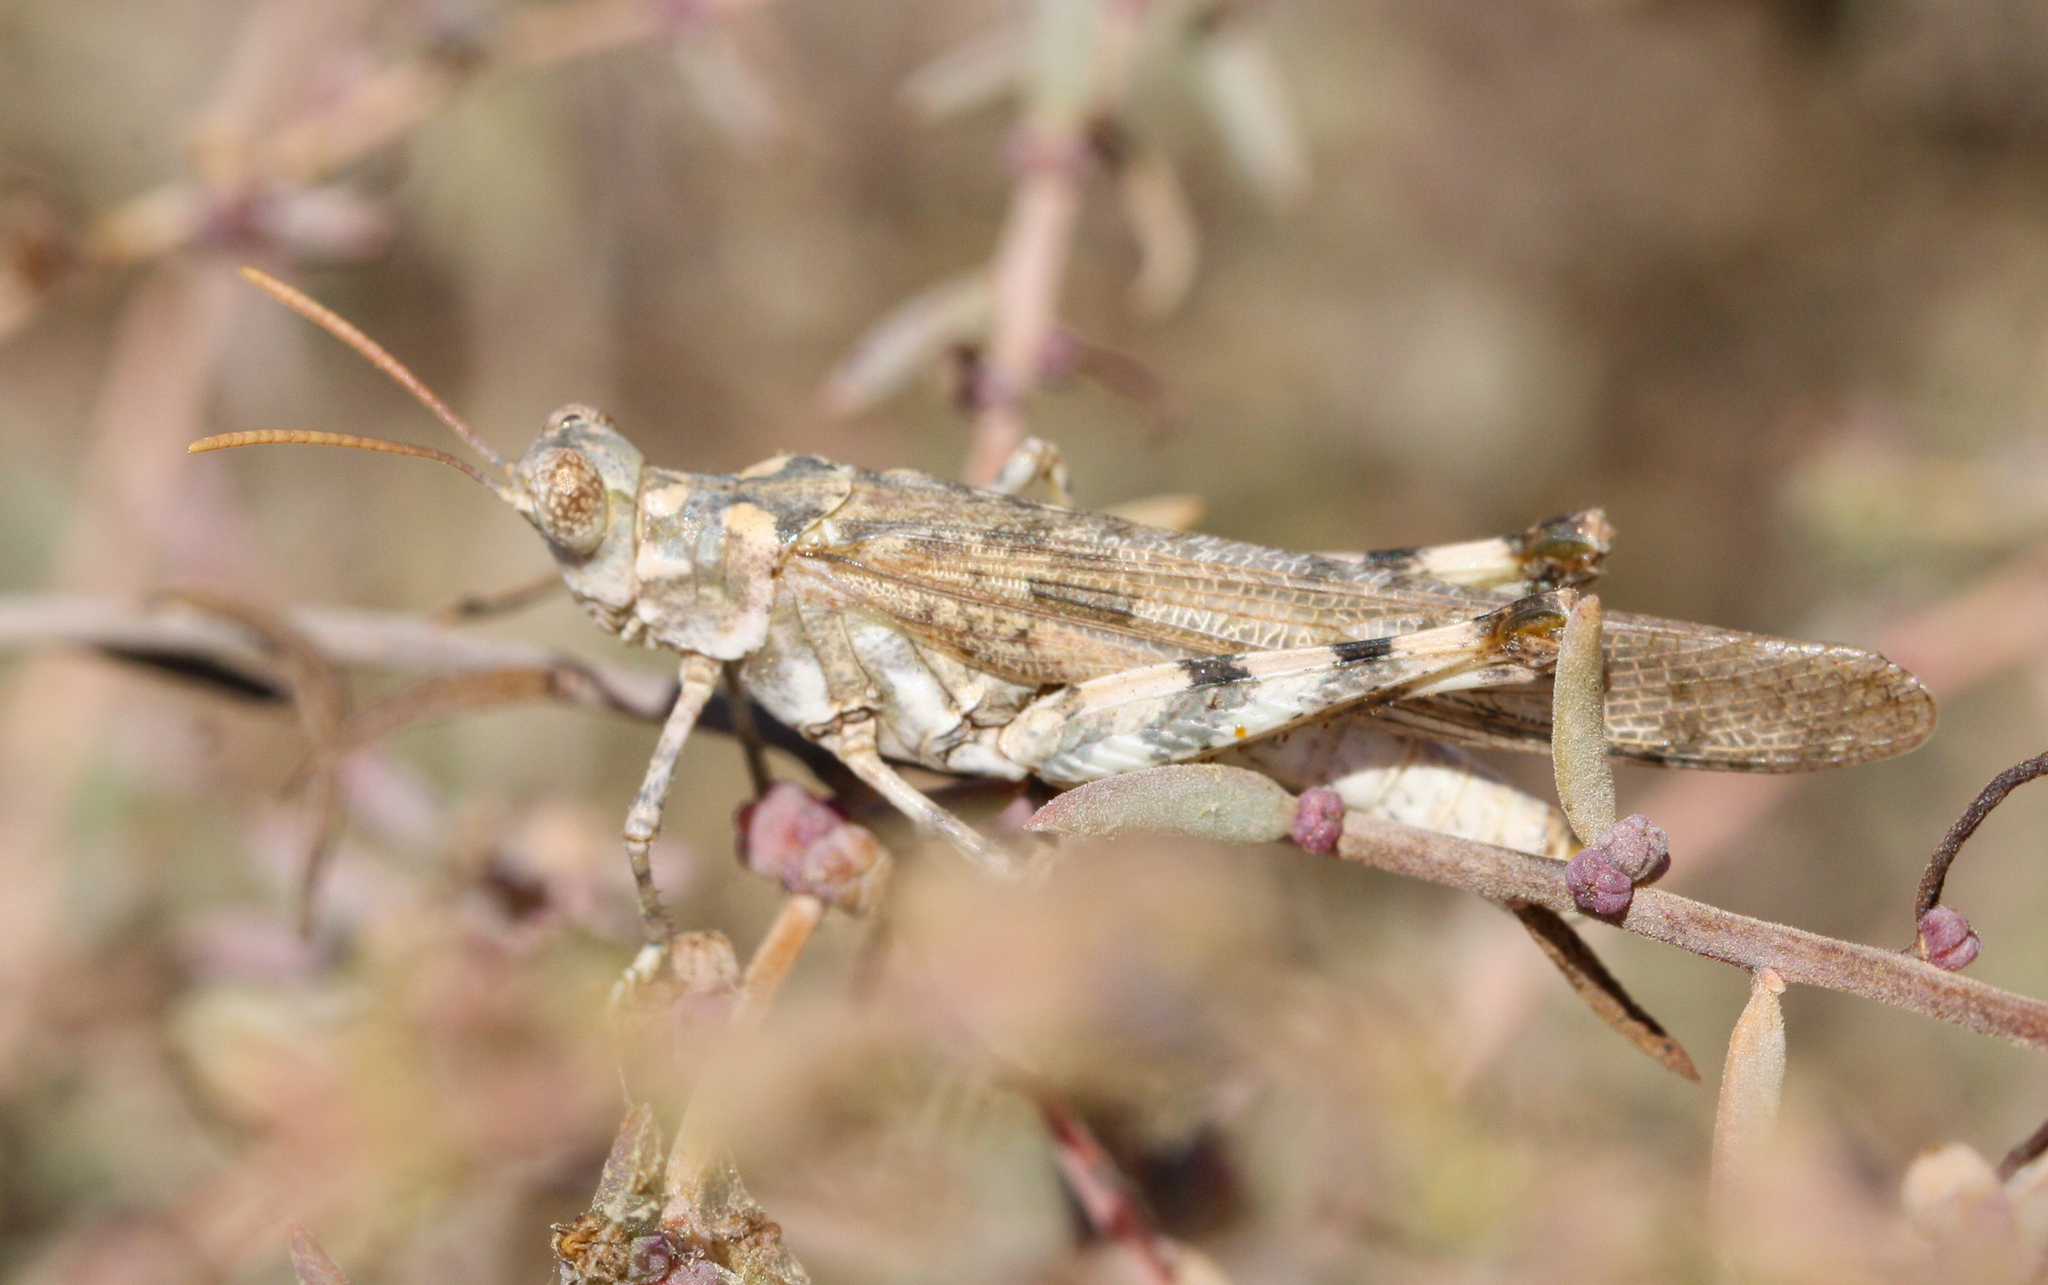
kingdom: Animalia
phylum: Arthropoda
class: Insecta
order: Orthoptera
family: Acrididae
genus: Anconia
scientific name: Anconia integra
